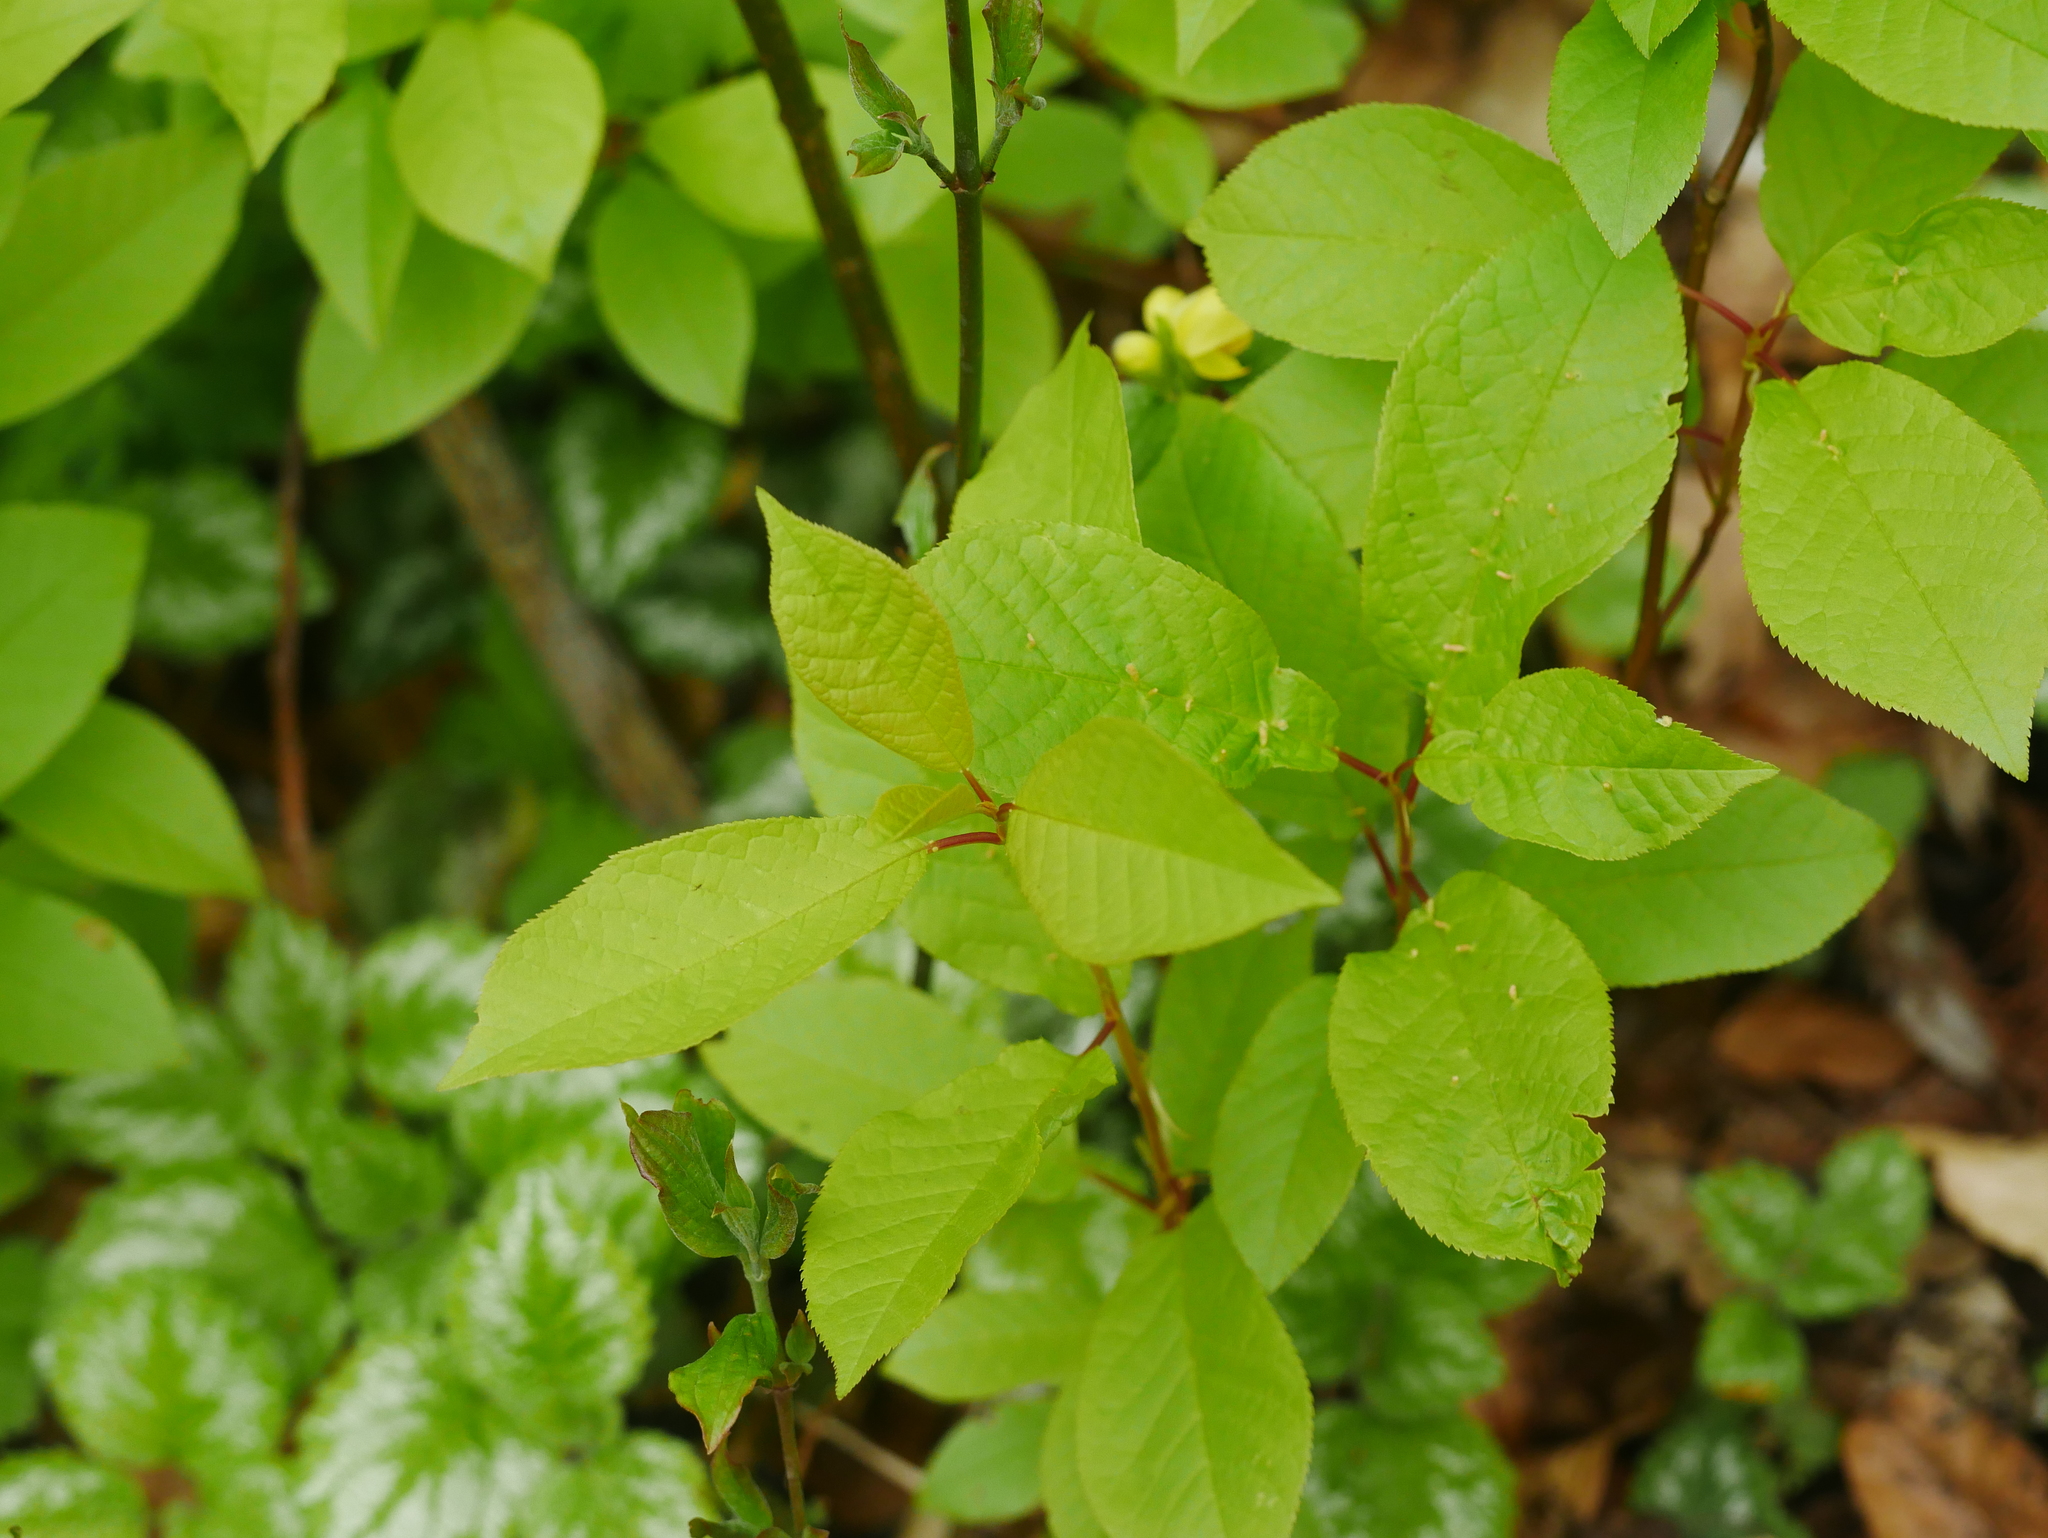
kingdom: Plantae
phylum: Tracheophyta
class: Magnoliopsida
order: Rosales
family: Rosaceae
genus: Prunus
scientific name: Prunus padus
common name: Bird cherry
